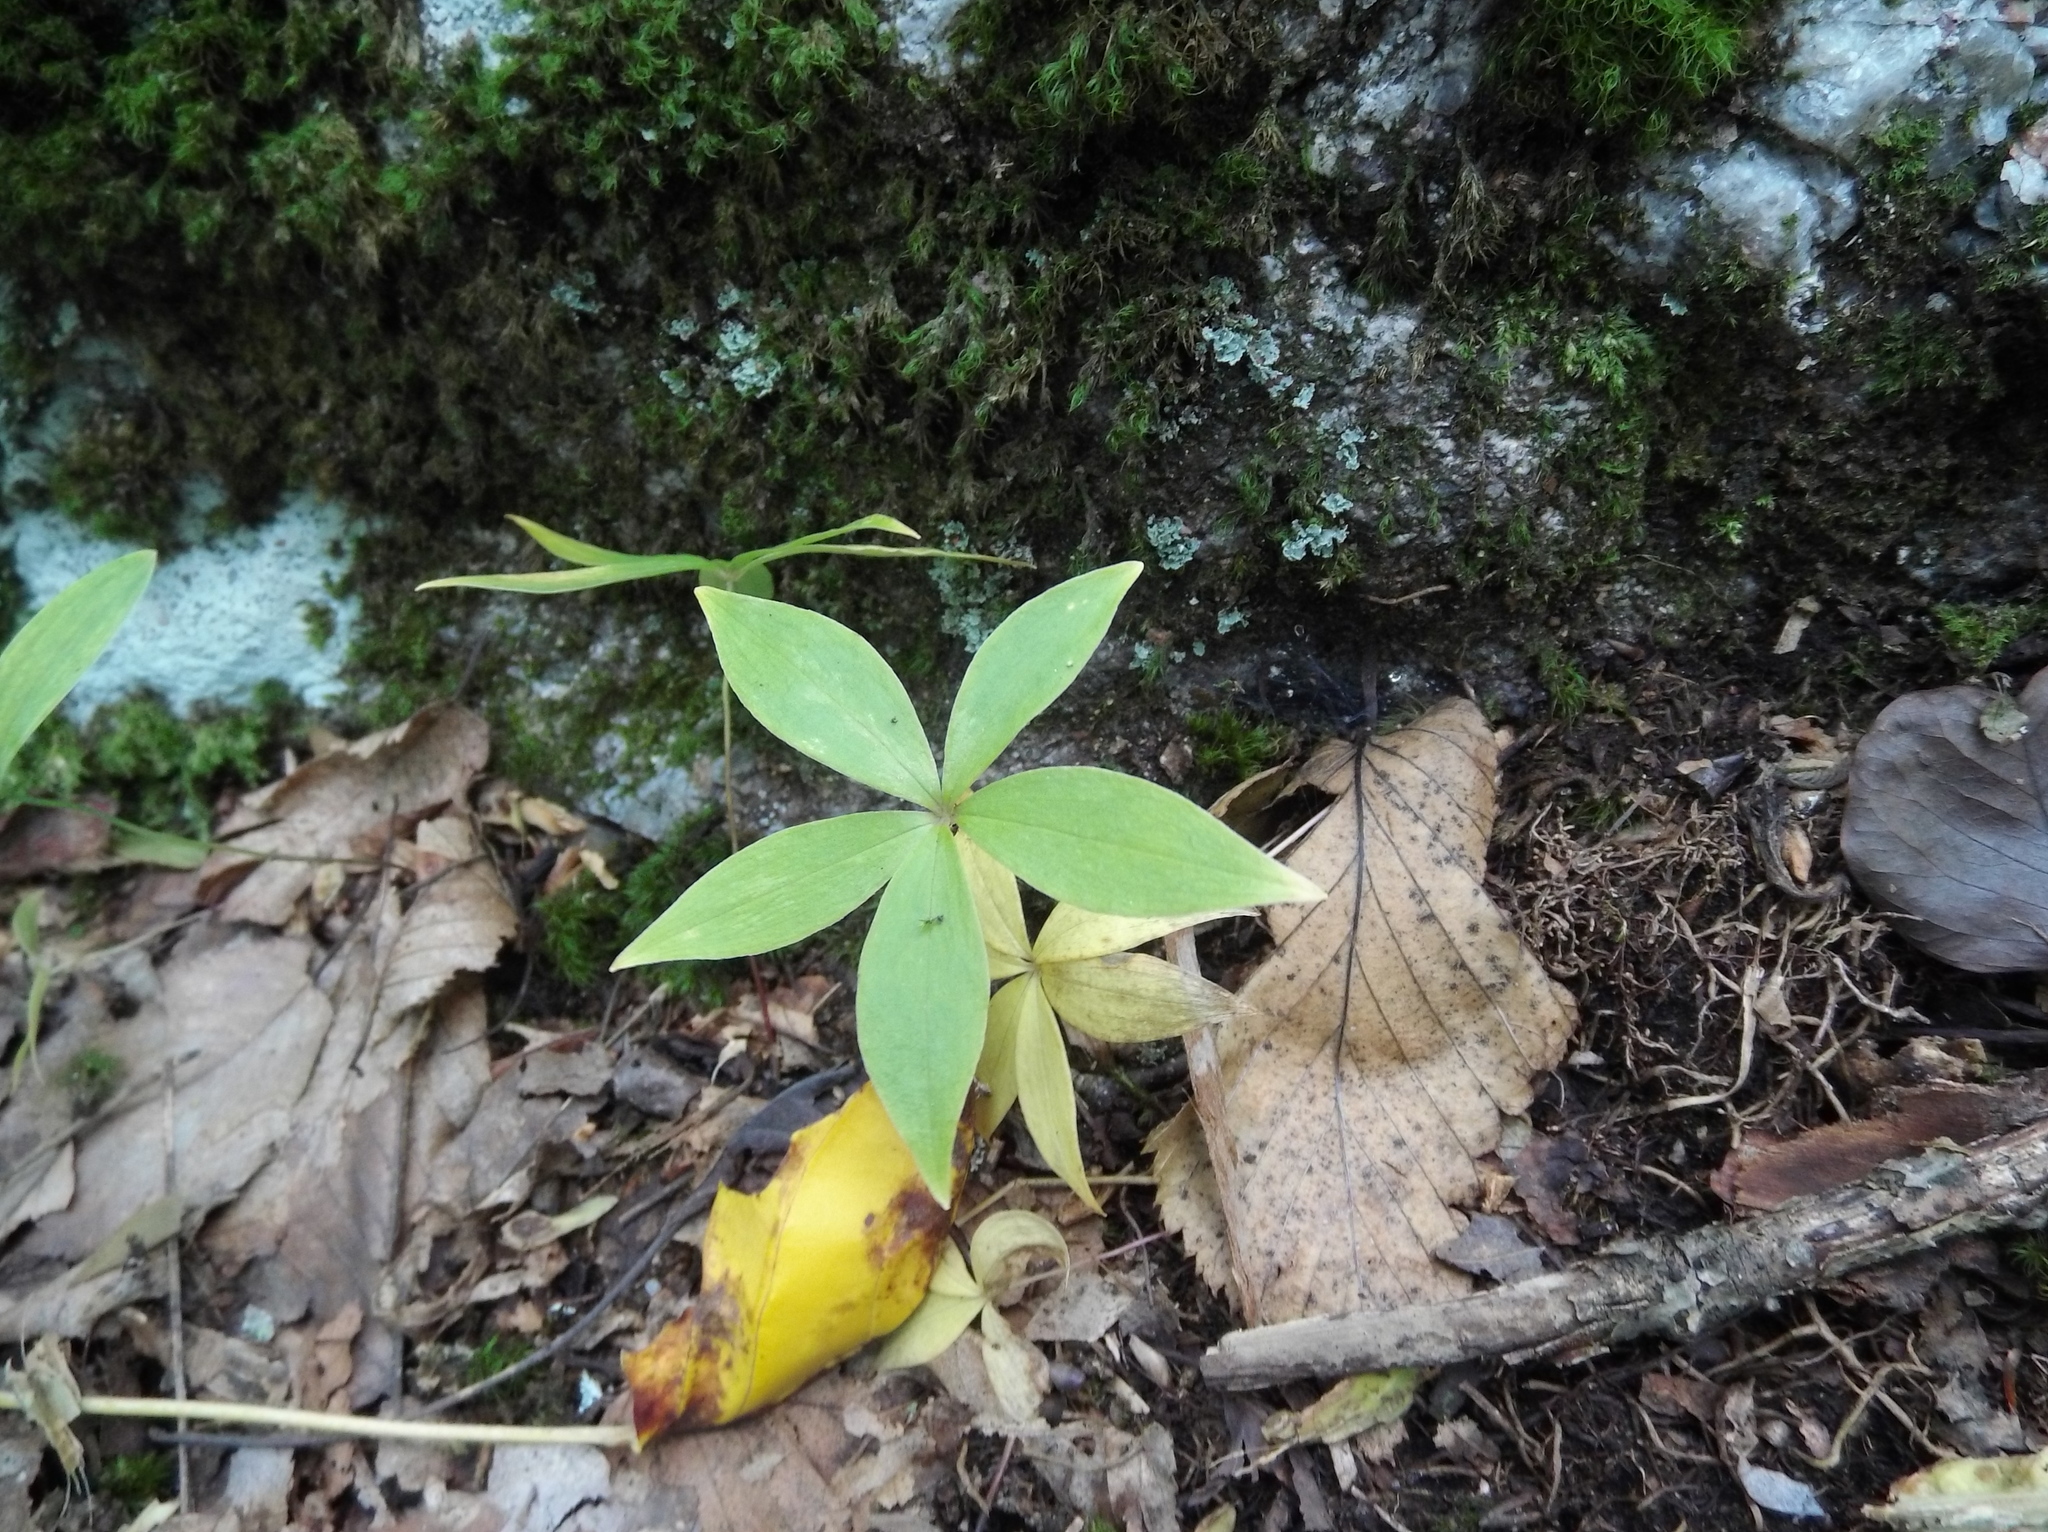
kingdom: Plantae
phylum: Tracheophyta
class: Liliopsida
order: Liliales
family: Liliaceae
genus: Medeola
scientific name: Medeola virginiana
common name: Indian cucumber-root
